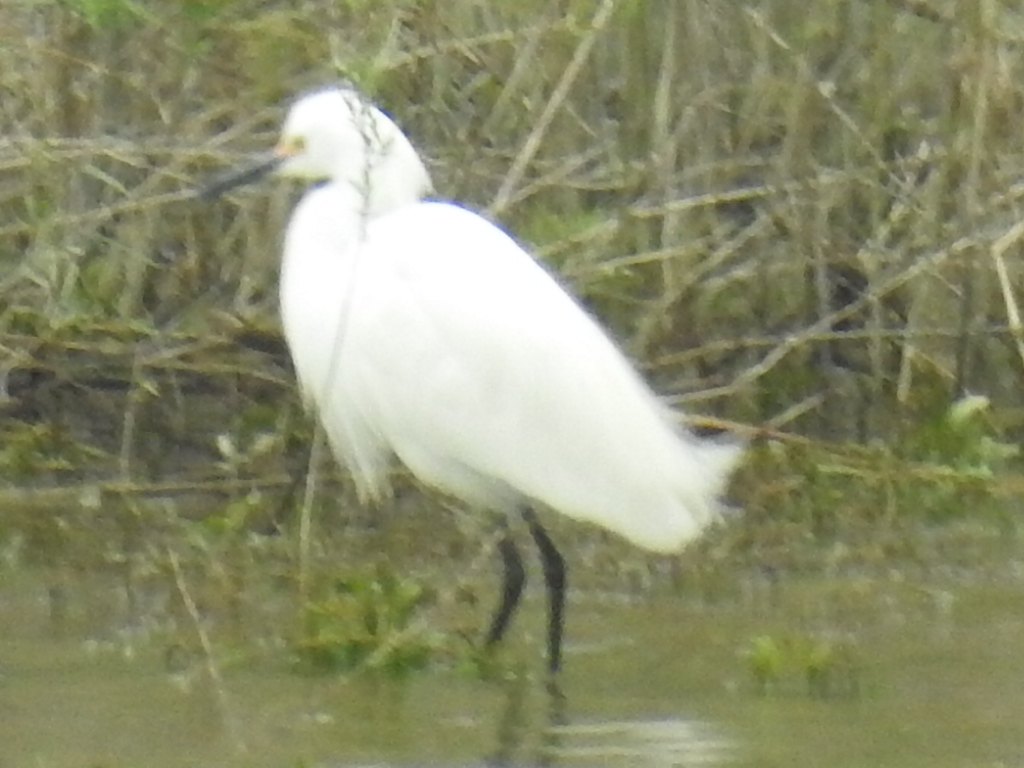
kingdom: Animalia
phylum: Chordata
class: Aves
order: Pelecaniformes
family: Ardeidae
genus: Egretta
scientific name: Egretta thula
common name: Snowy egret
